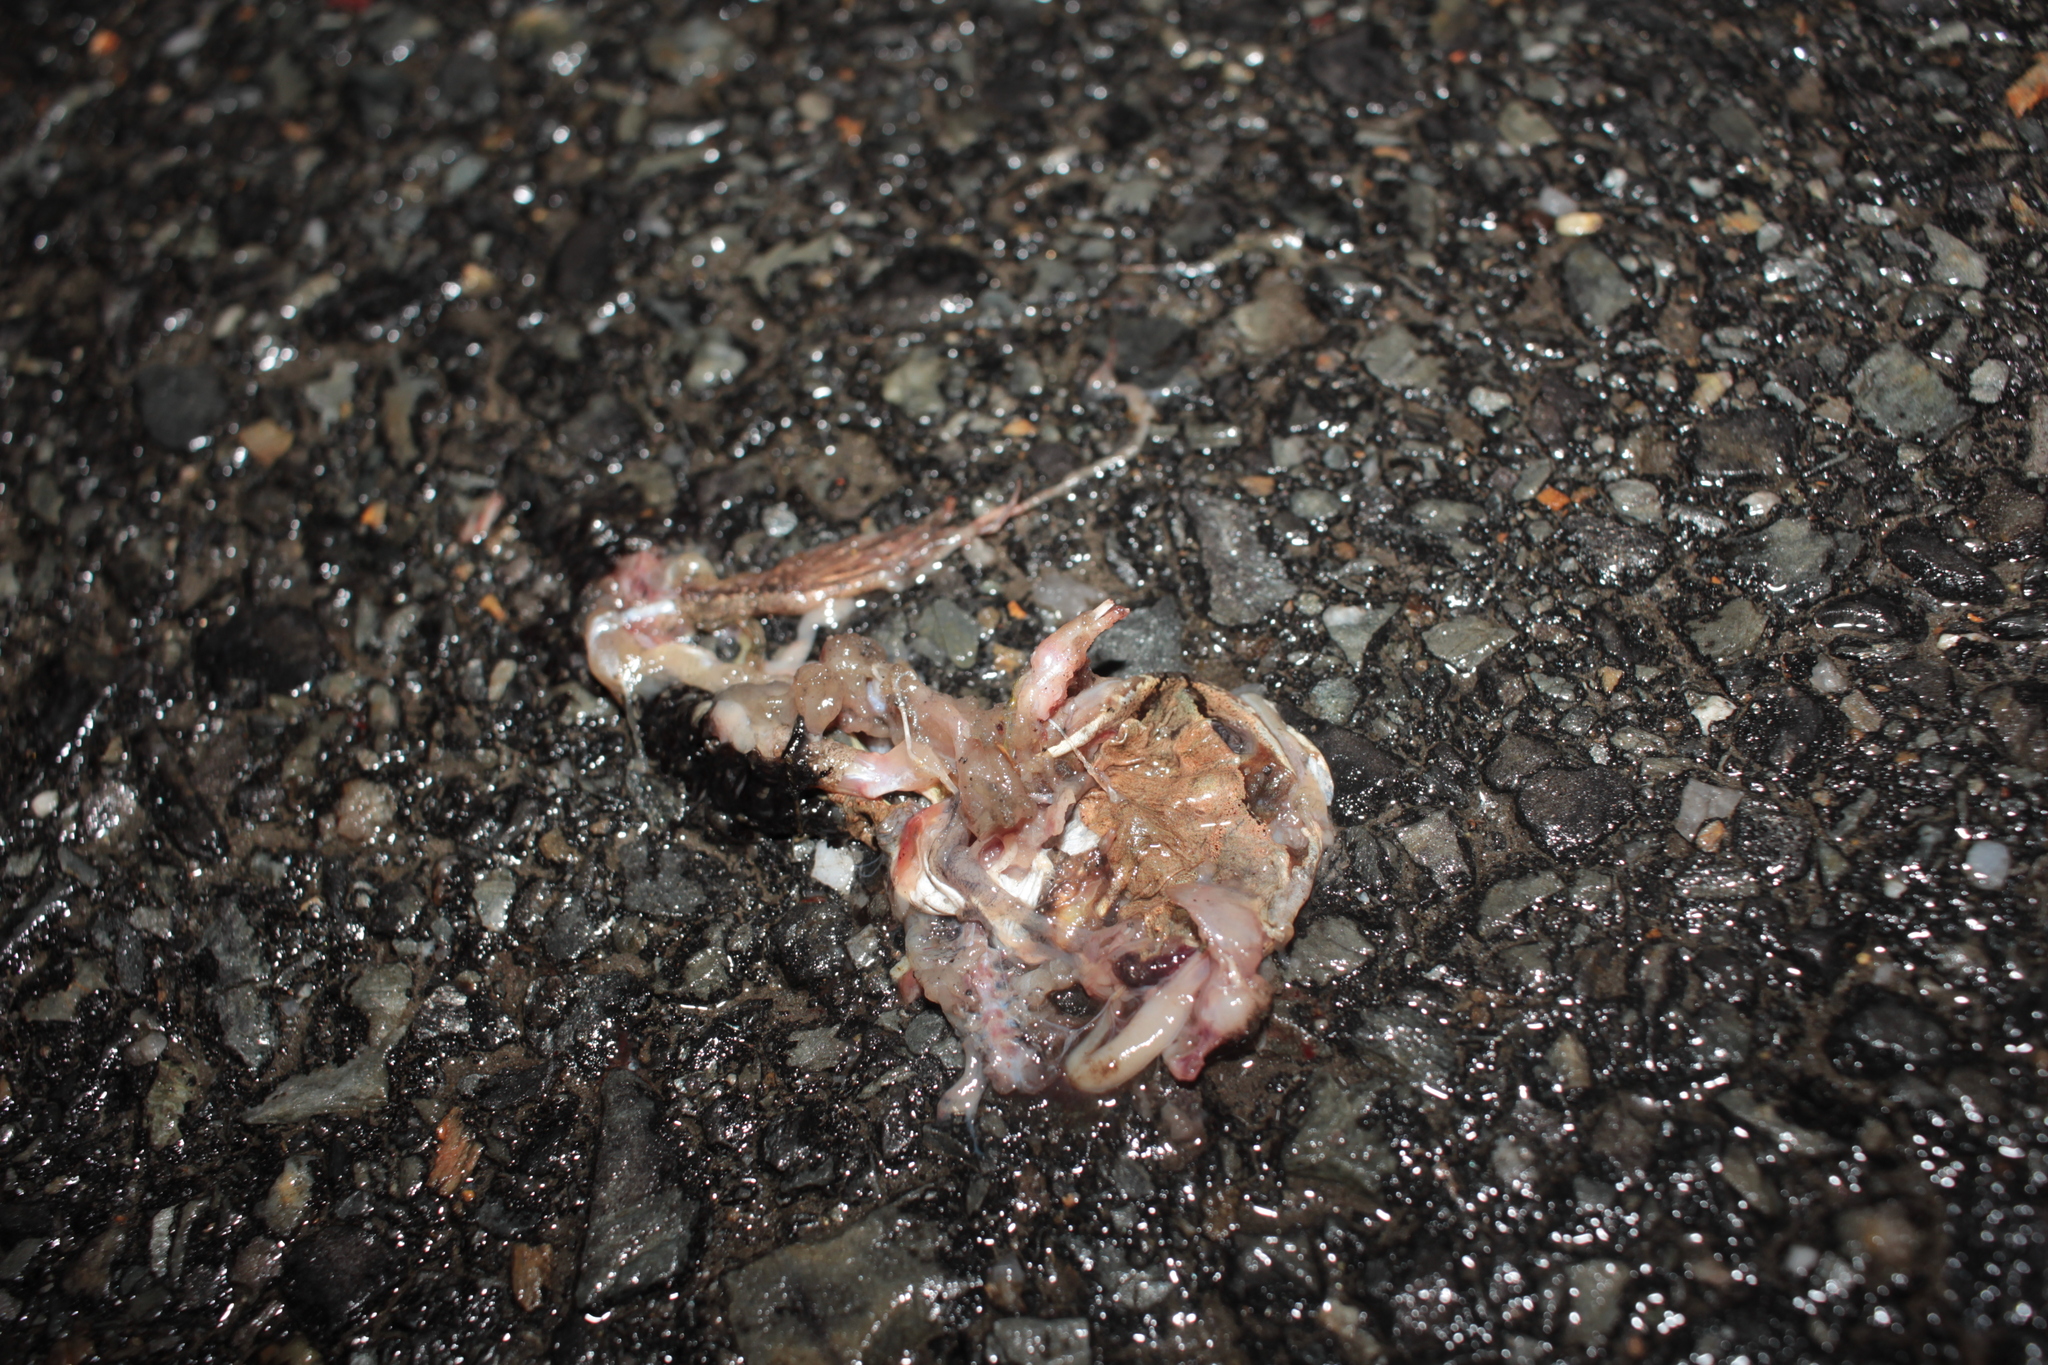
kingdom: Animalia
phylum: Chordata
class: Amphibia
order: Anura
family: Ranidae
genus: Lithobates
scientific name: Lithobates sylvaticus
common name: Wood frog
